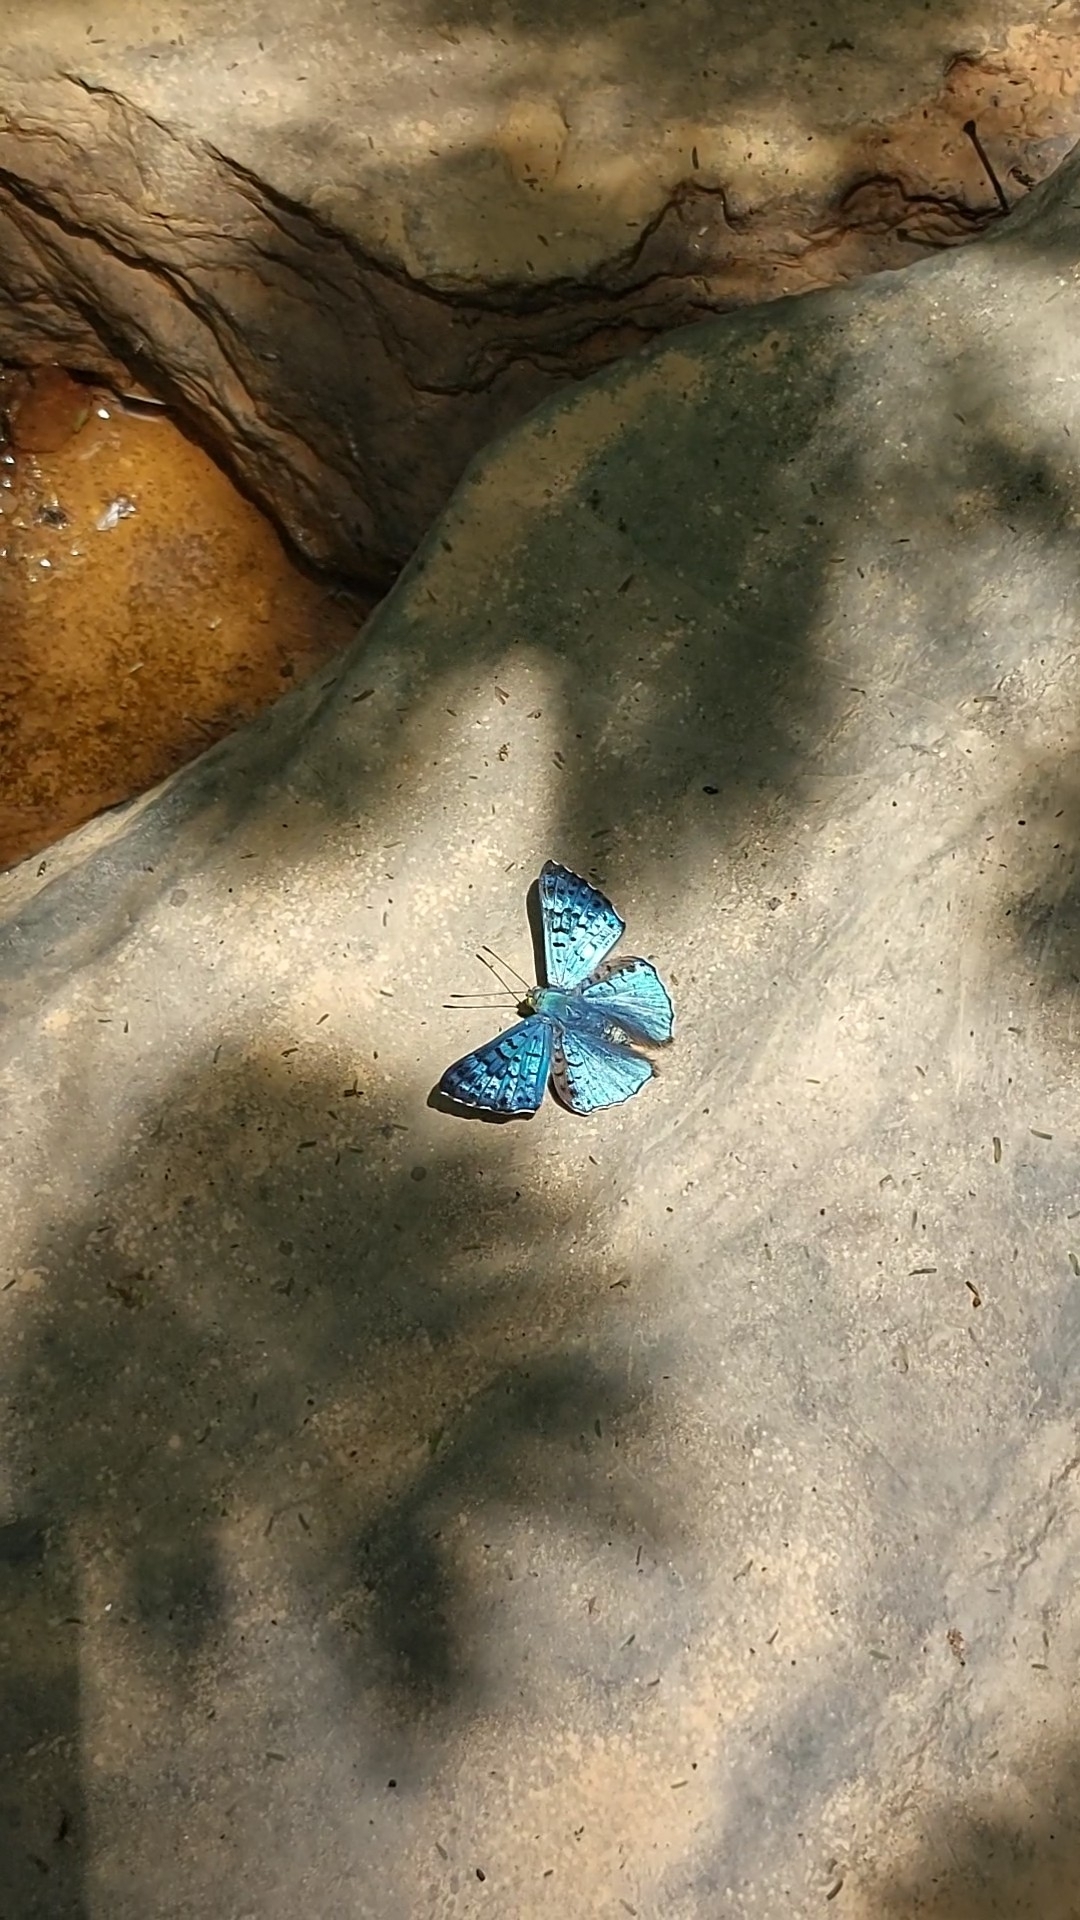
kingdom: Animalia
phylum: Arthropoda
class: Insecta
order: Lepidoptera
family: Riodinidae
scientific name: Riodinidae
